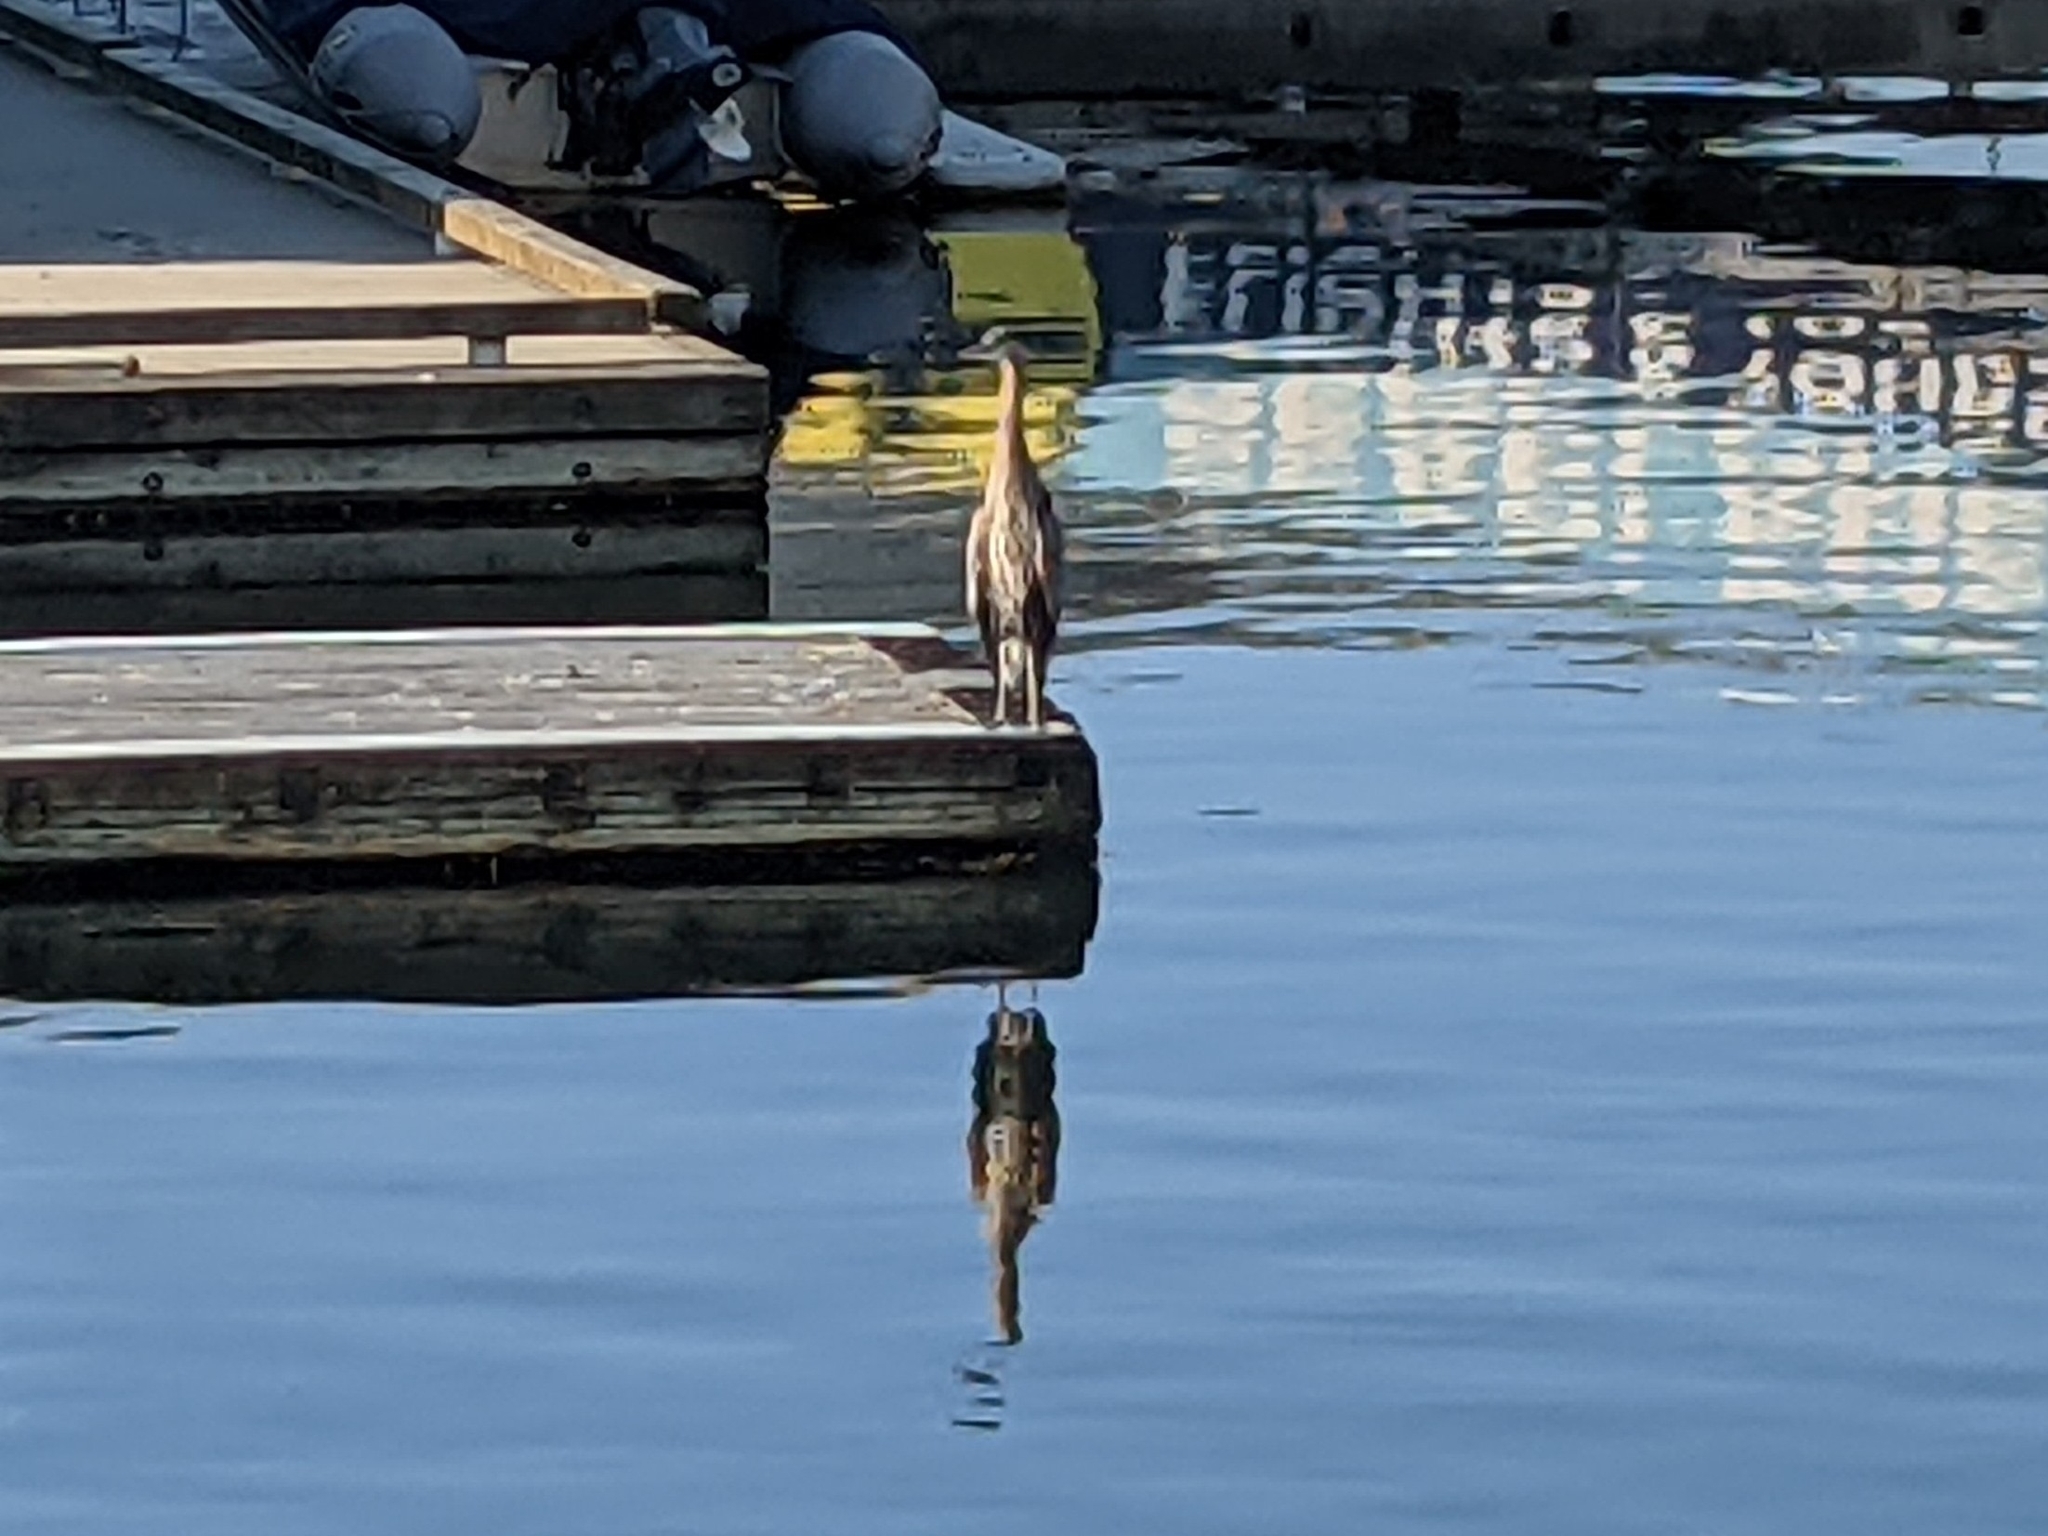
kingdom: Animalia
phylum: Chordata
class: Aves
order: Pelecaniformes
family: Ardeidae
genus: Ardea
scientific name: Ardea herodias
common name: Great blue heron
